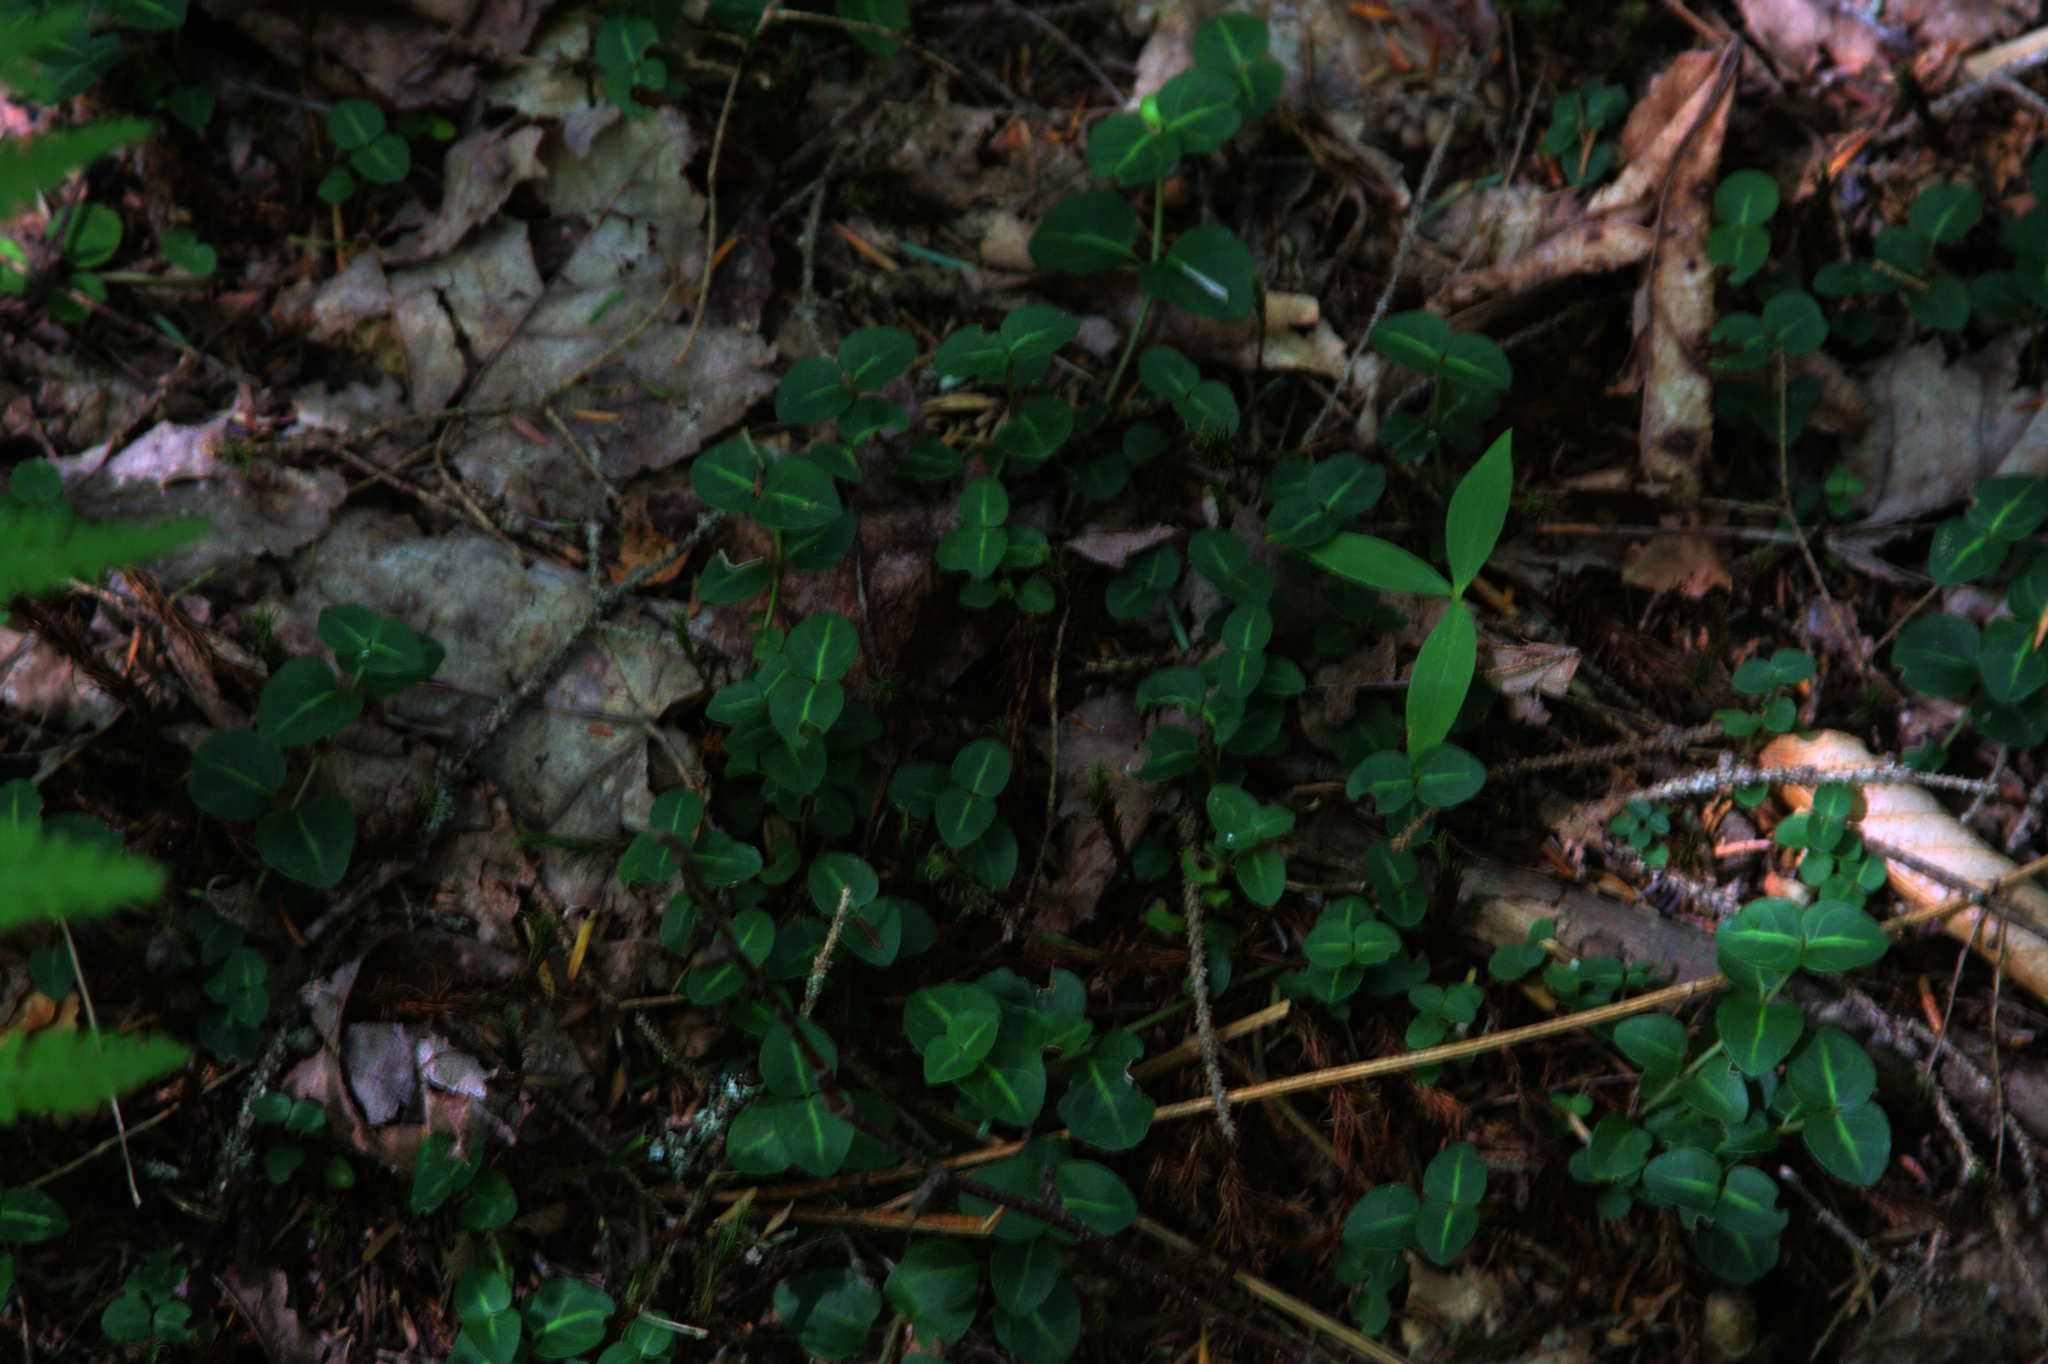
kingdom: Plantae
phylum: Tracheophyta
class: Magnoliopsida
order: Gentianales
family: Rubiaceae
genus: Mitchella
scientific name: Mitchella repens
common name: Partridge-berry
